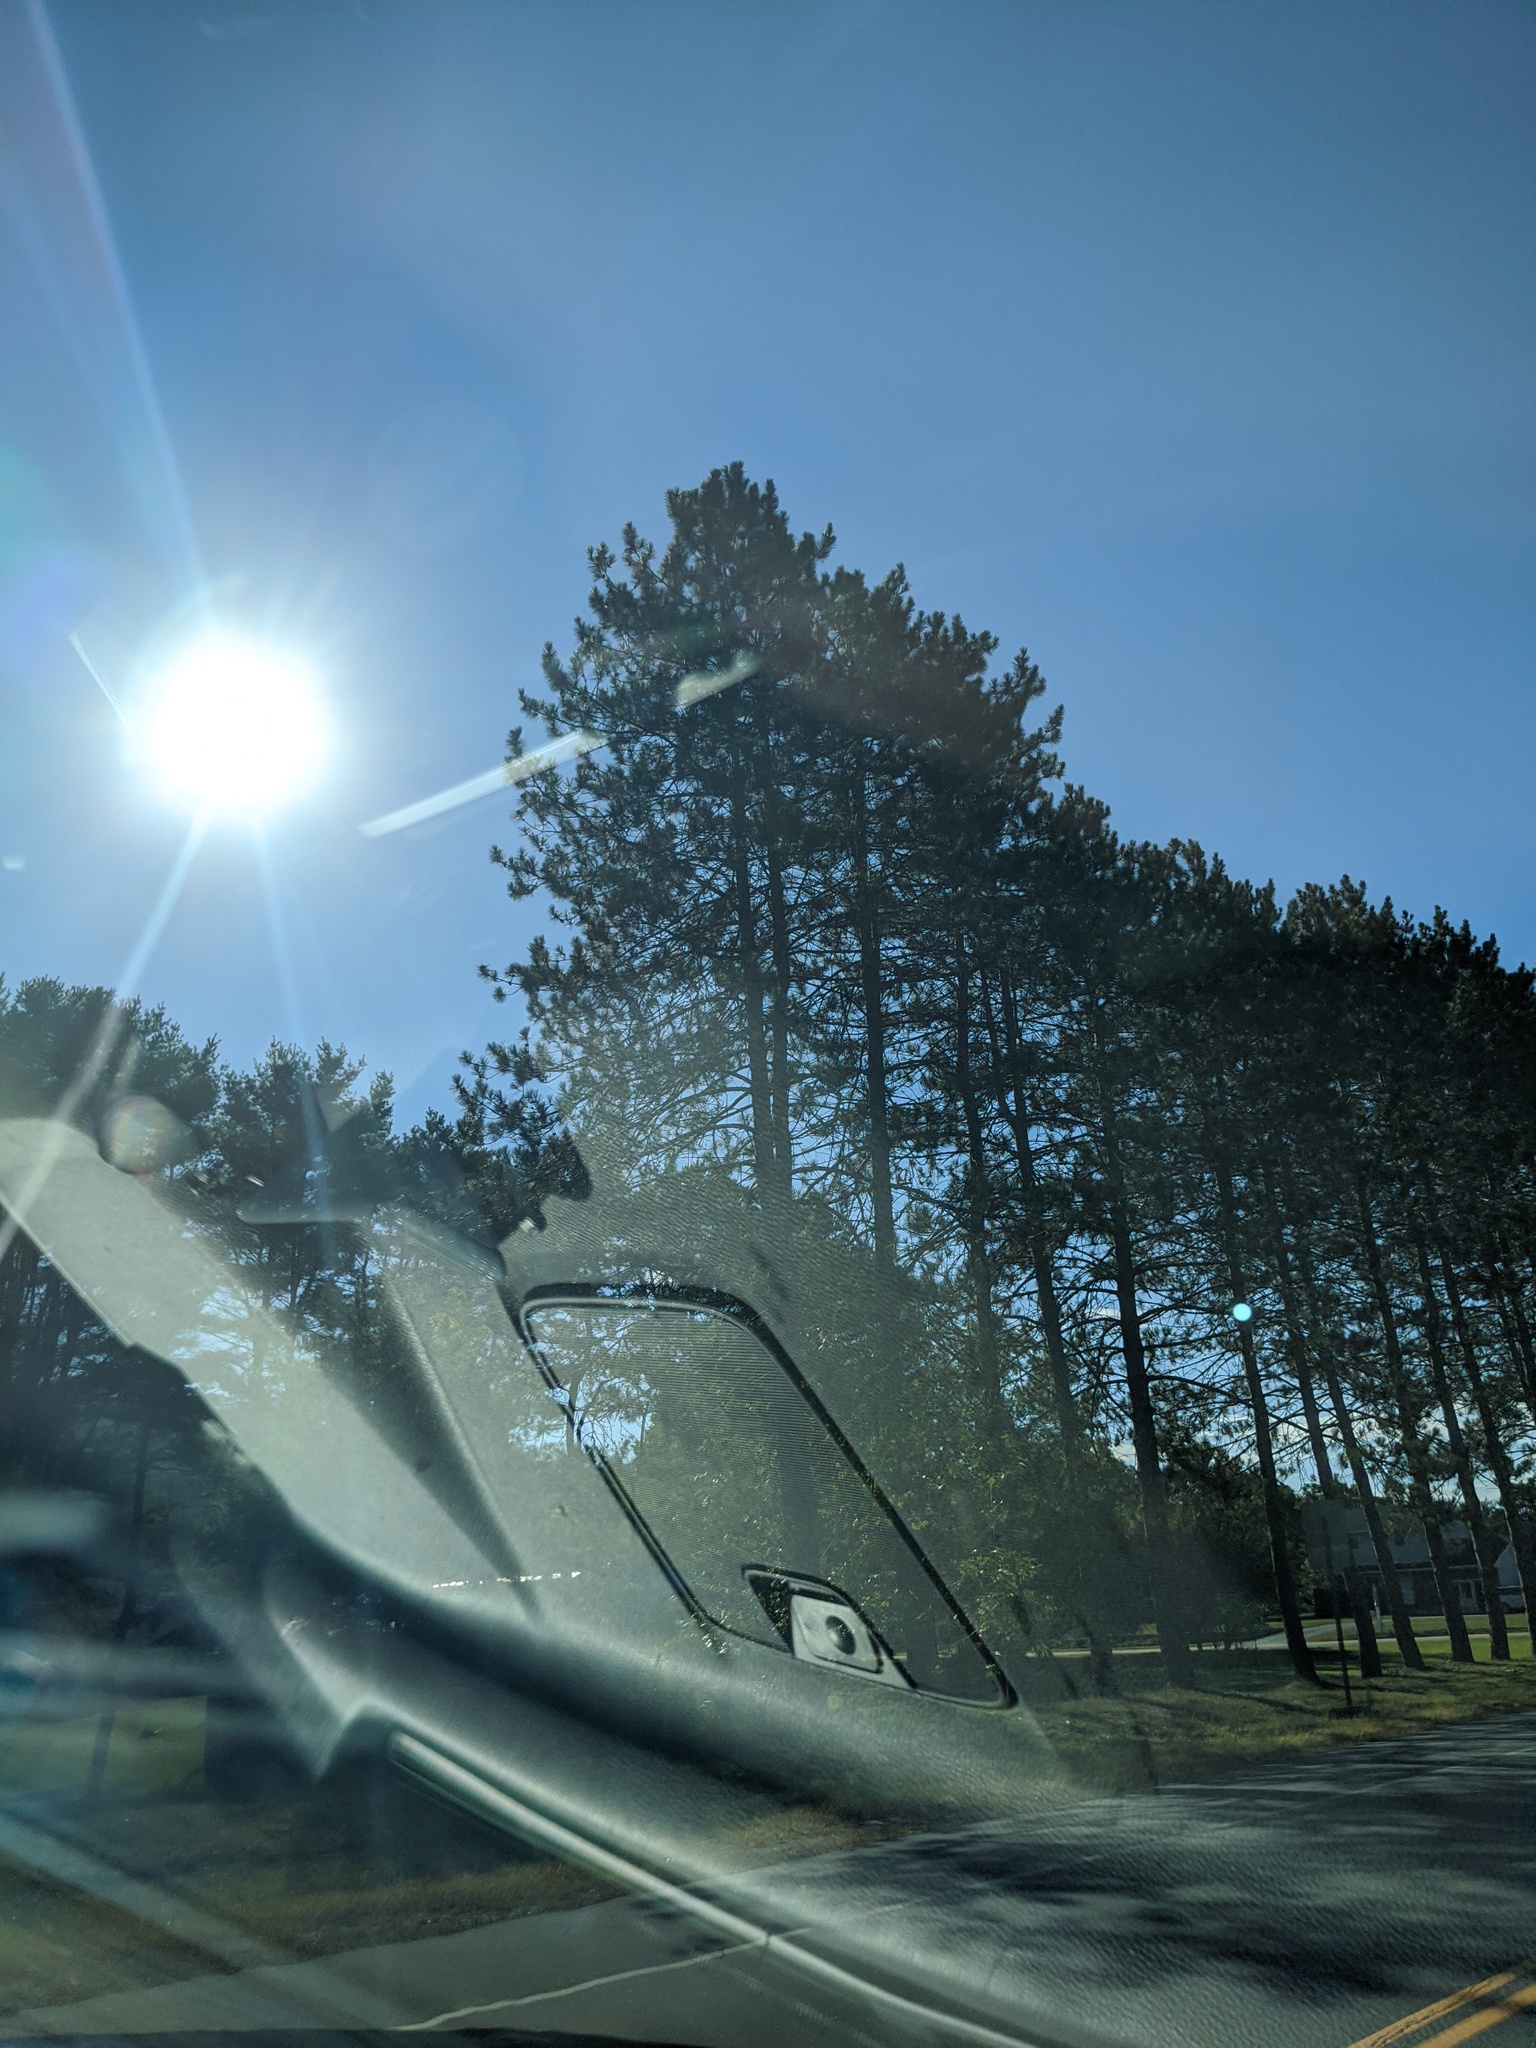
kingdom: Plantae
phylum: Tracheophyta
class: Pinopsida
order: Pinales
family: Pinaceae
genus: Pinus
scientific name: Pinus resinosa
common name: Norway pine
